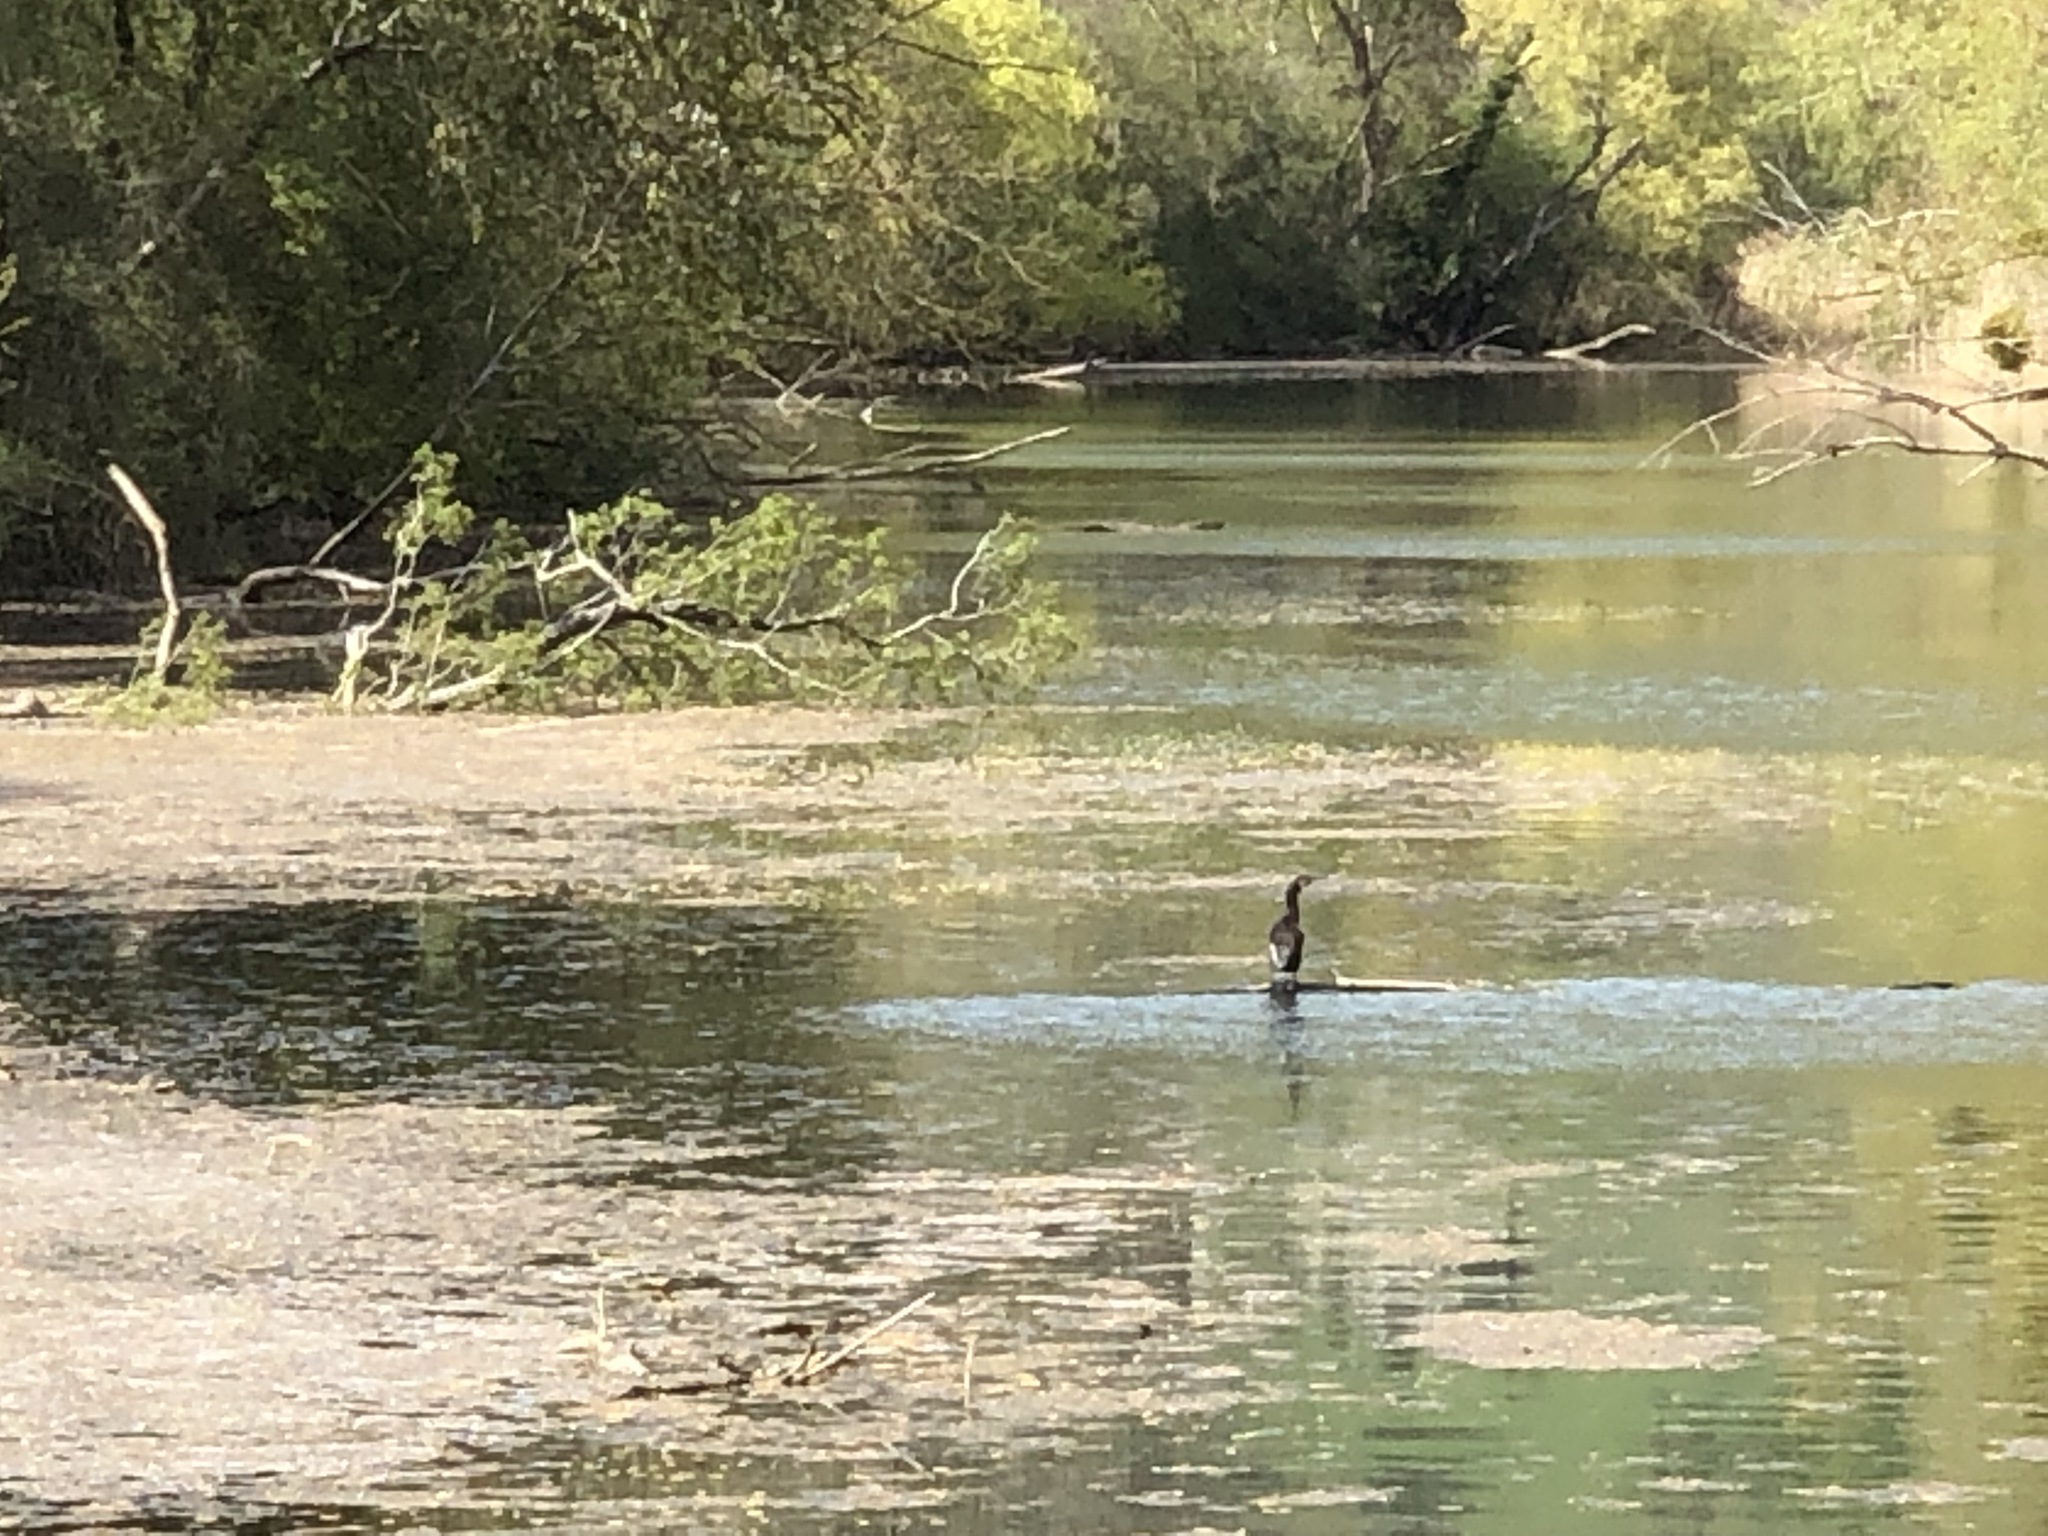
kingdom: Animalia
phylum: Chordata
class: Aves
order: Suliformes
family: Phalacrocoracidae
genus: Phalacrocorax
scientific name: Phalacrocorax carbo
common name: Great cormorant
